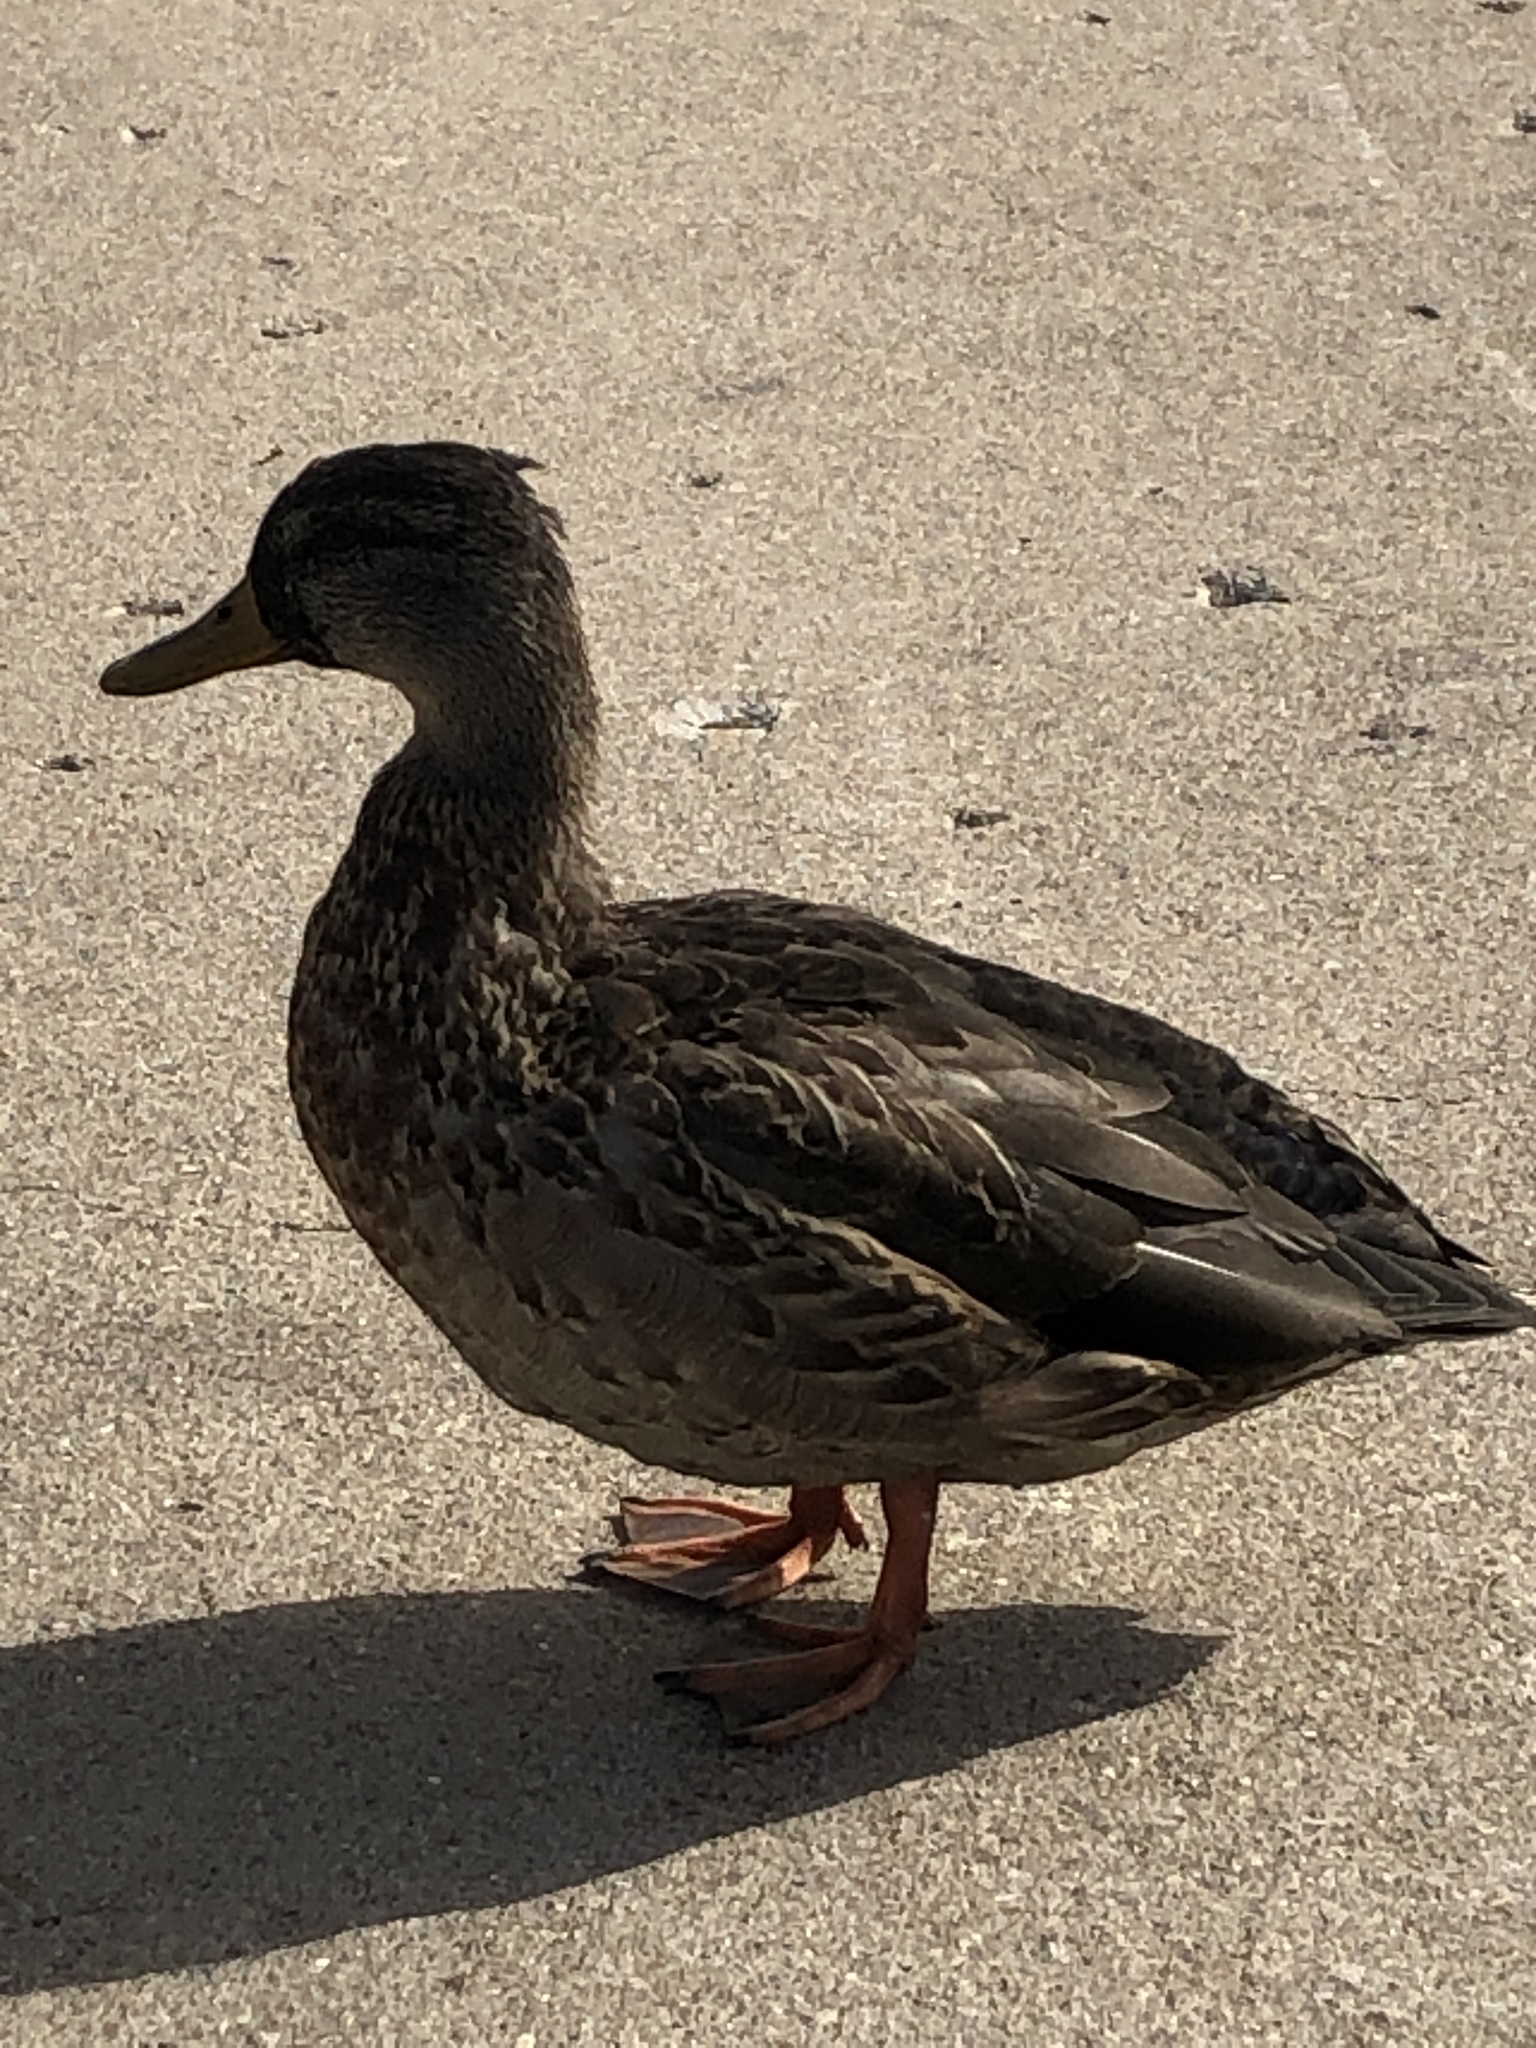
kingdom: Animalia
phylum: Chordata
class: Aves
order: Anseriformes
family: Anatidae
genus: Anas
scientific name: Anas platyrhynchos
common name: Mallard
